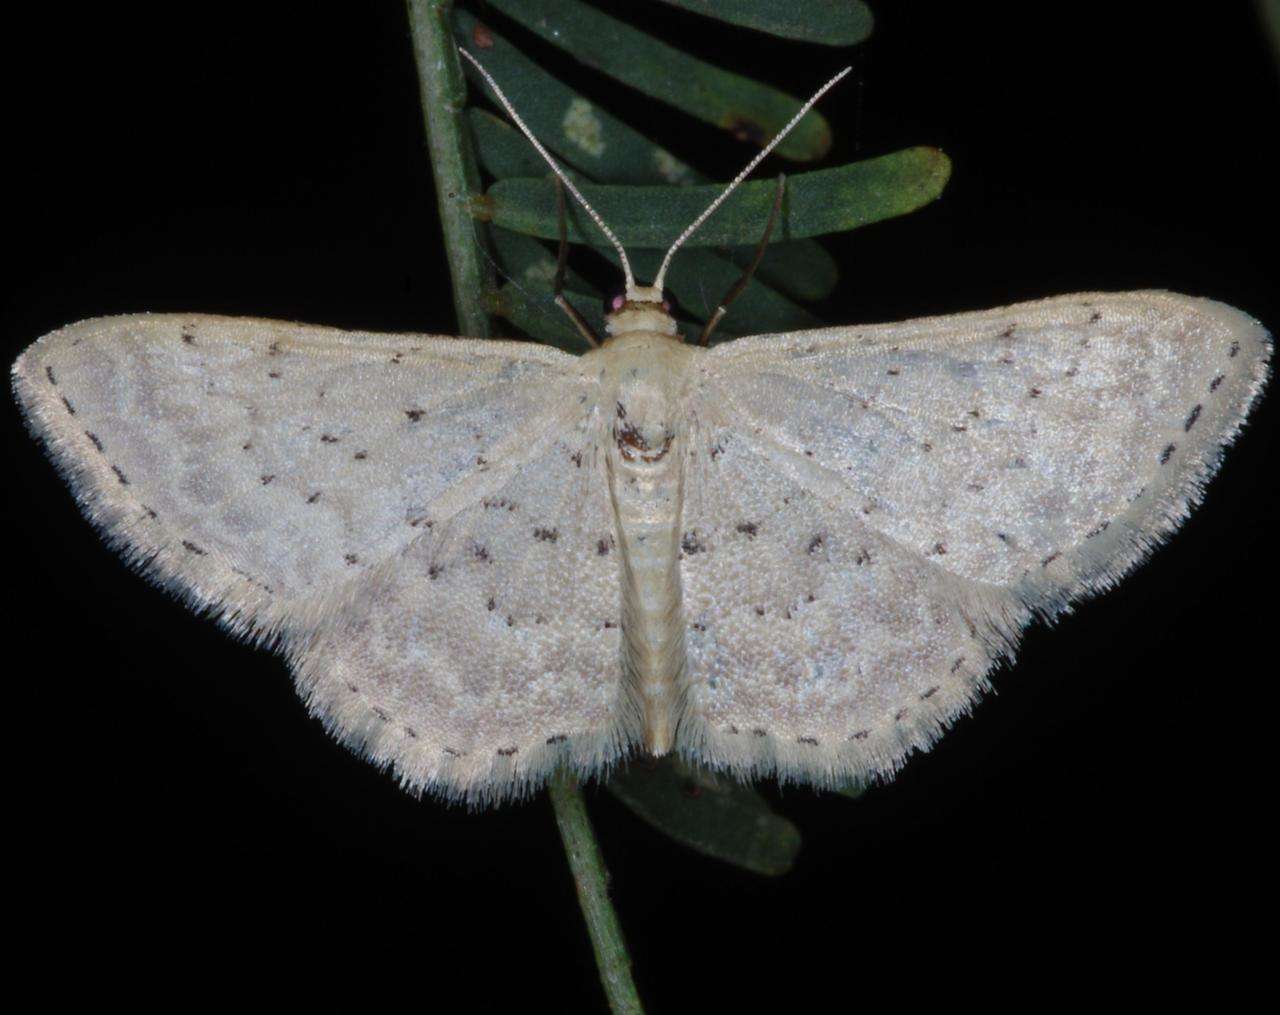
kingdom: Animalia
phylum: Arthropoda
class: Insecta
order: Lepidoptera
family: Geometridae
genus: Idaea
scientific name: Idaea philocosma
